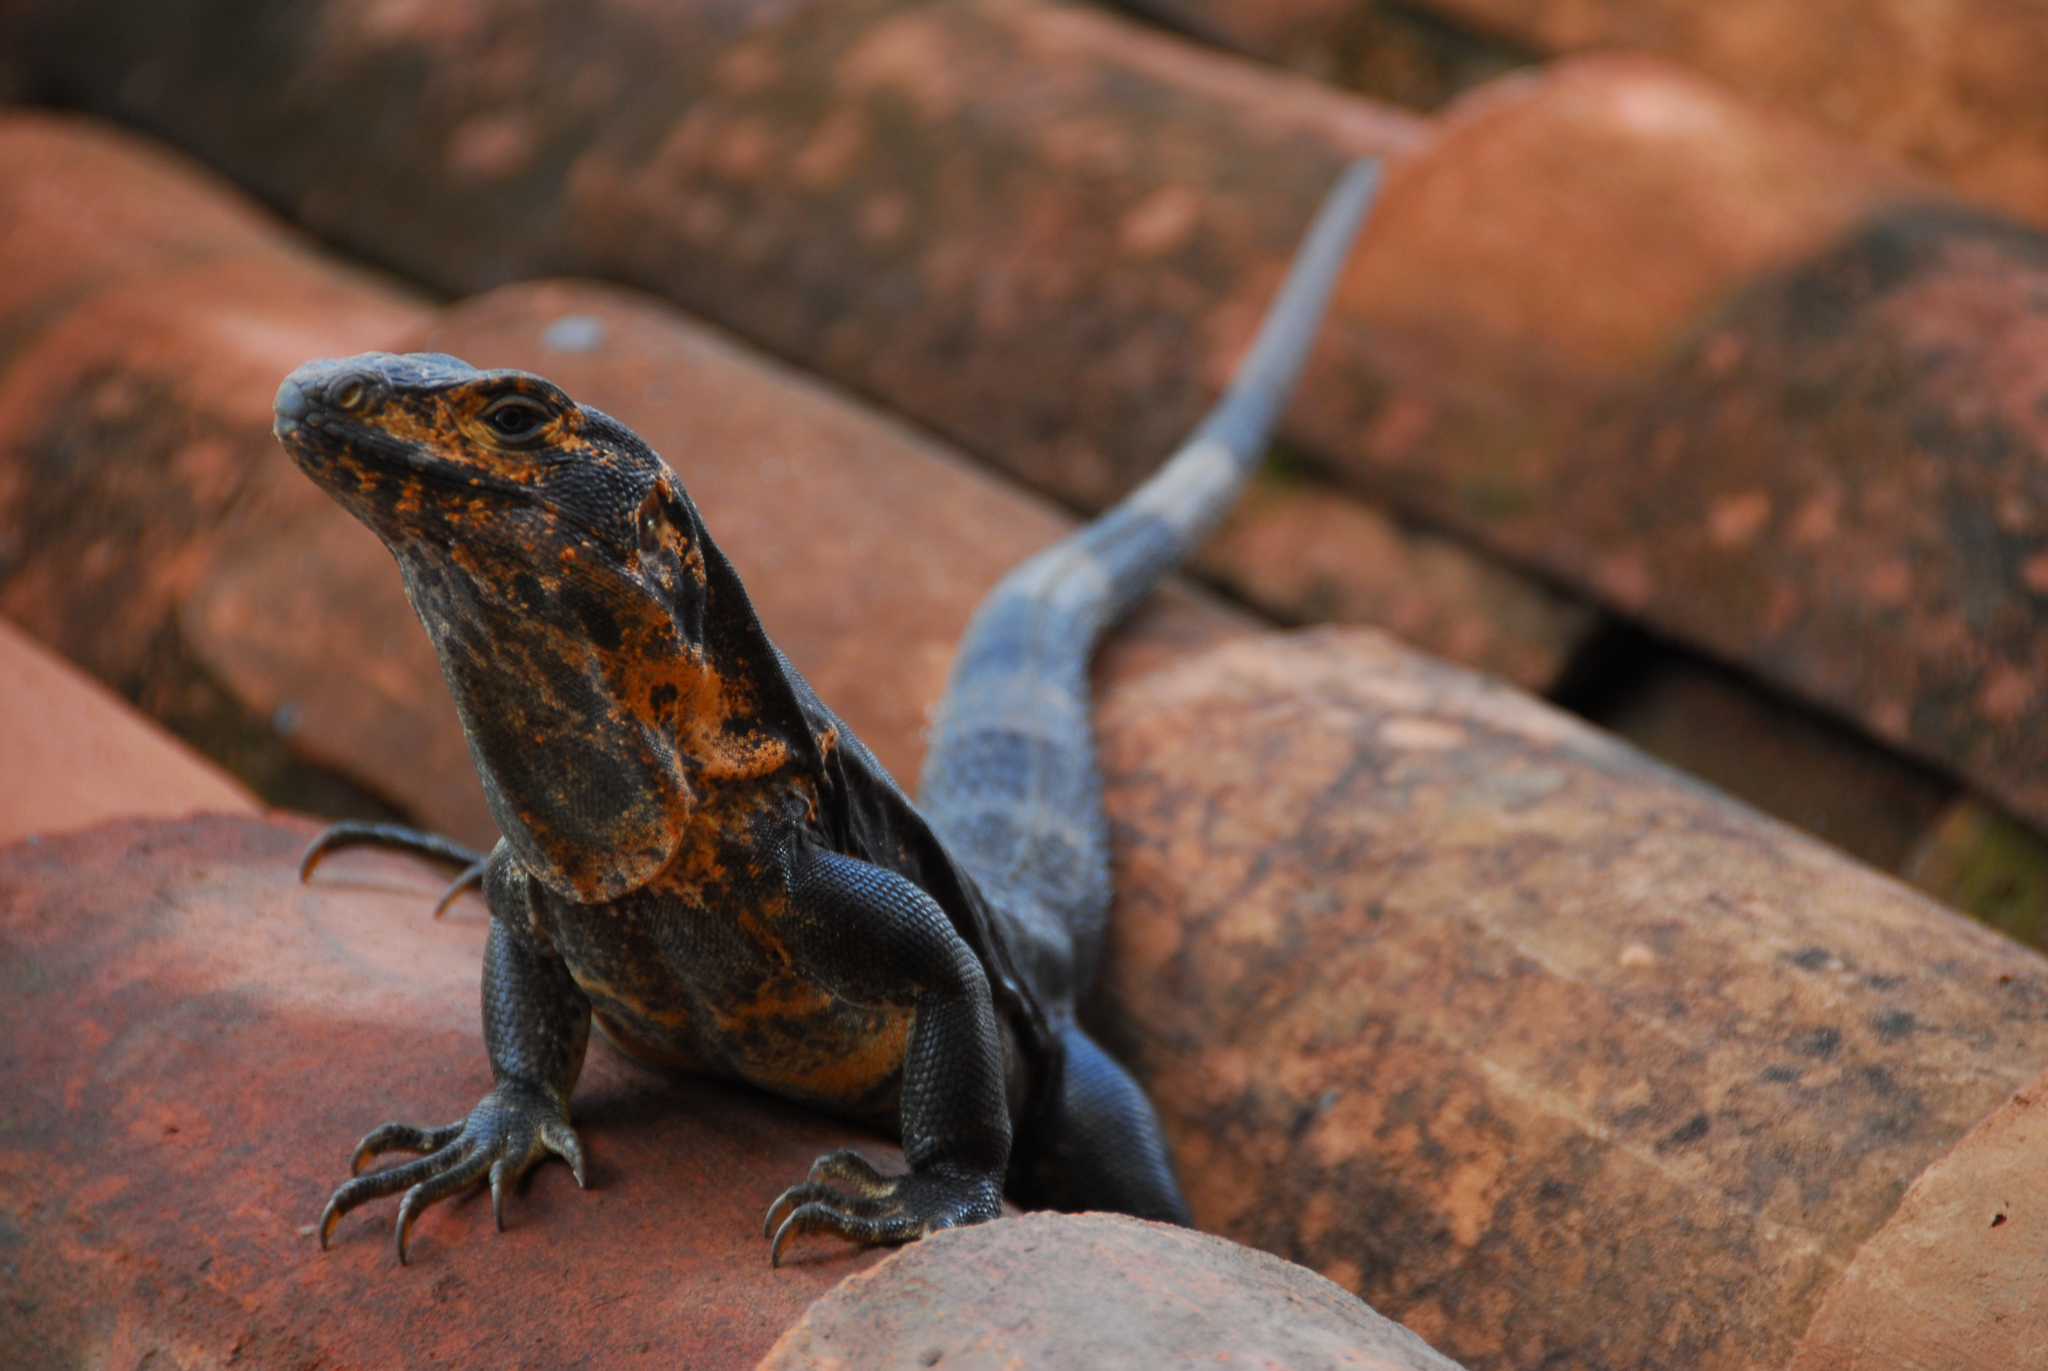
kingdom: Animalia
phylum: Chordata
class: Squamata
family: Iguanidae
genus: Ctenosaura
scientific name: Ctenosaura similis
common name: Black spiny-tailed iguana
